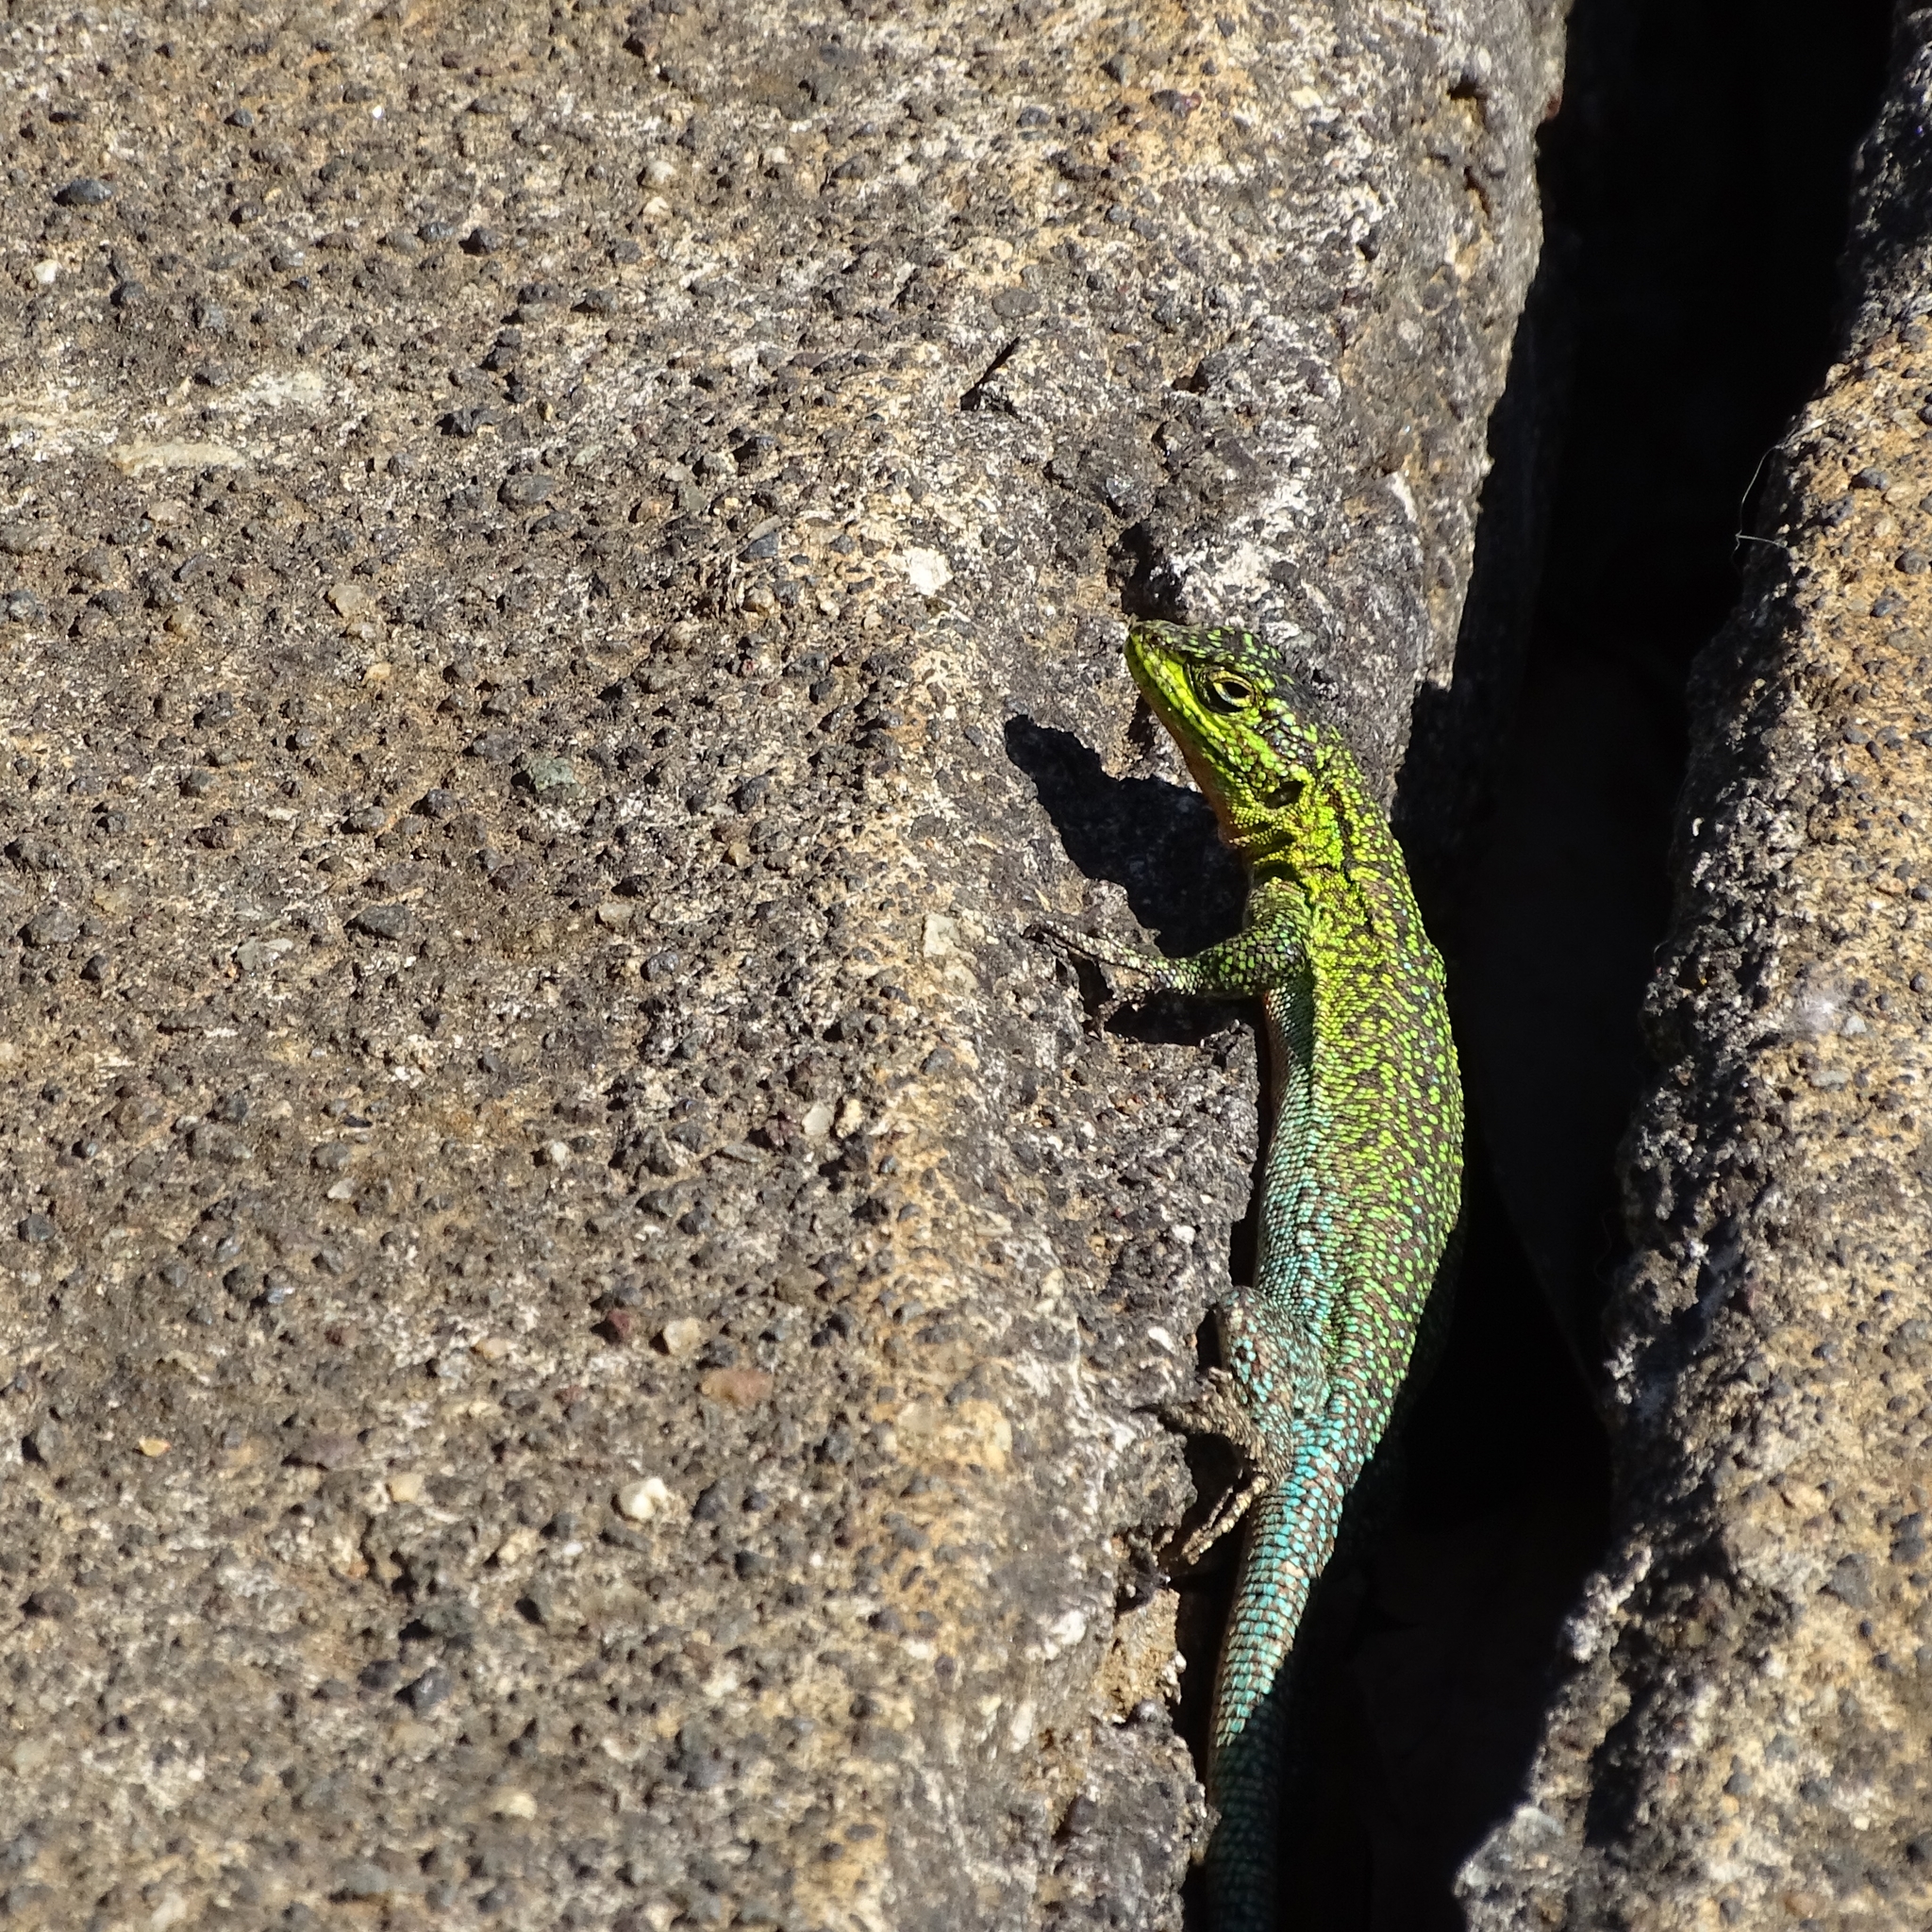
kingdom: Animalia
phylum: Chordata
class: Squamata
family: Liolaemidae
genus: Liolaemus
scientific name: Liolaemus tenuis
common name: Thin tree iguana
